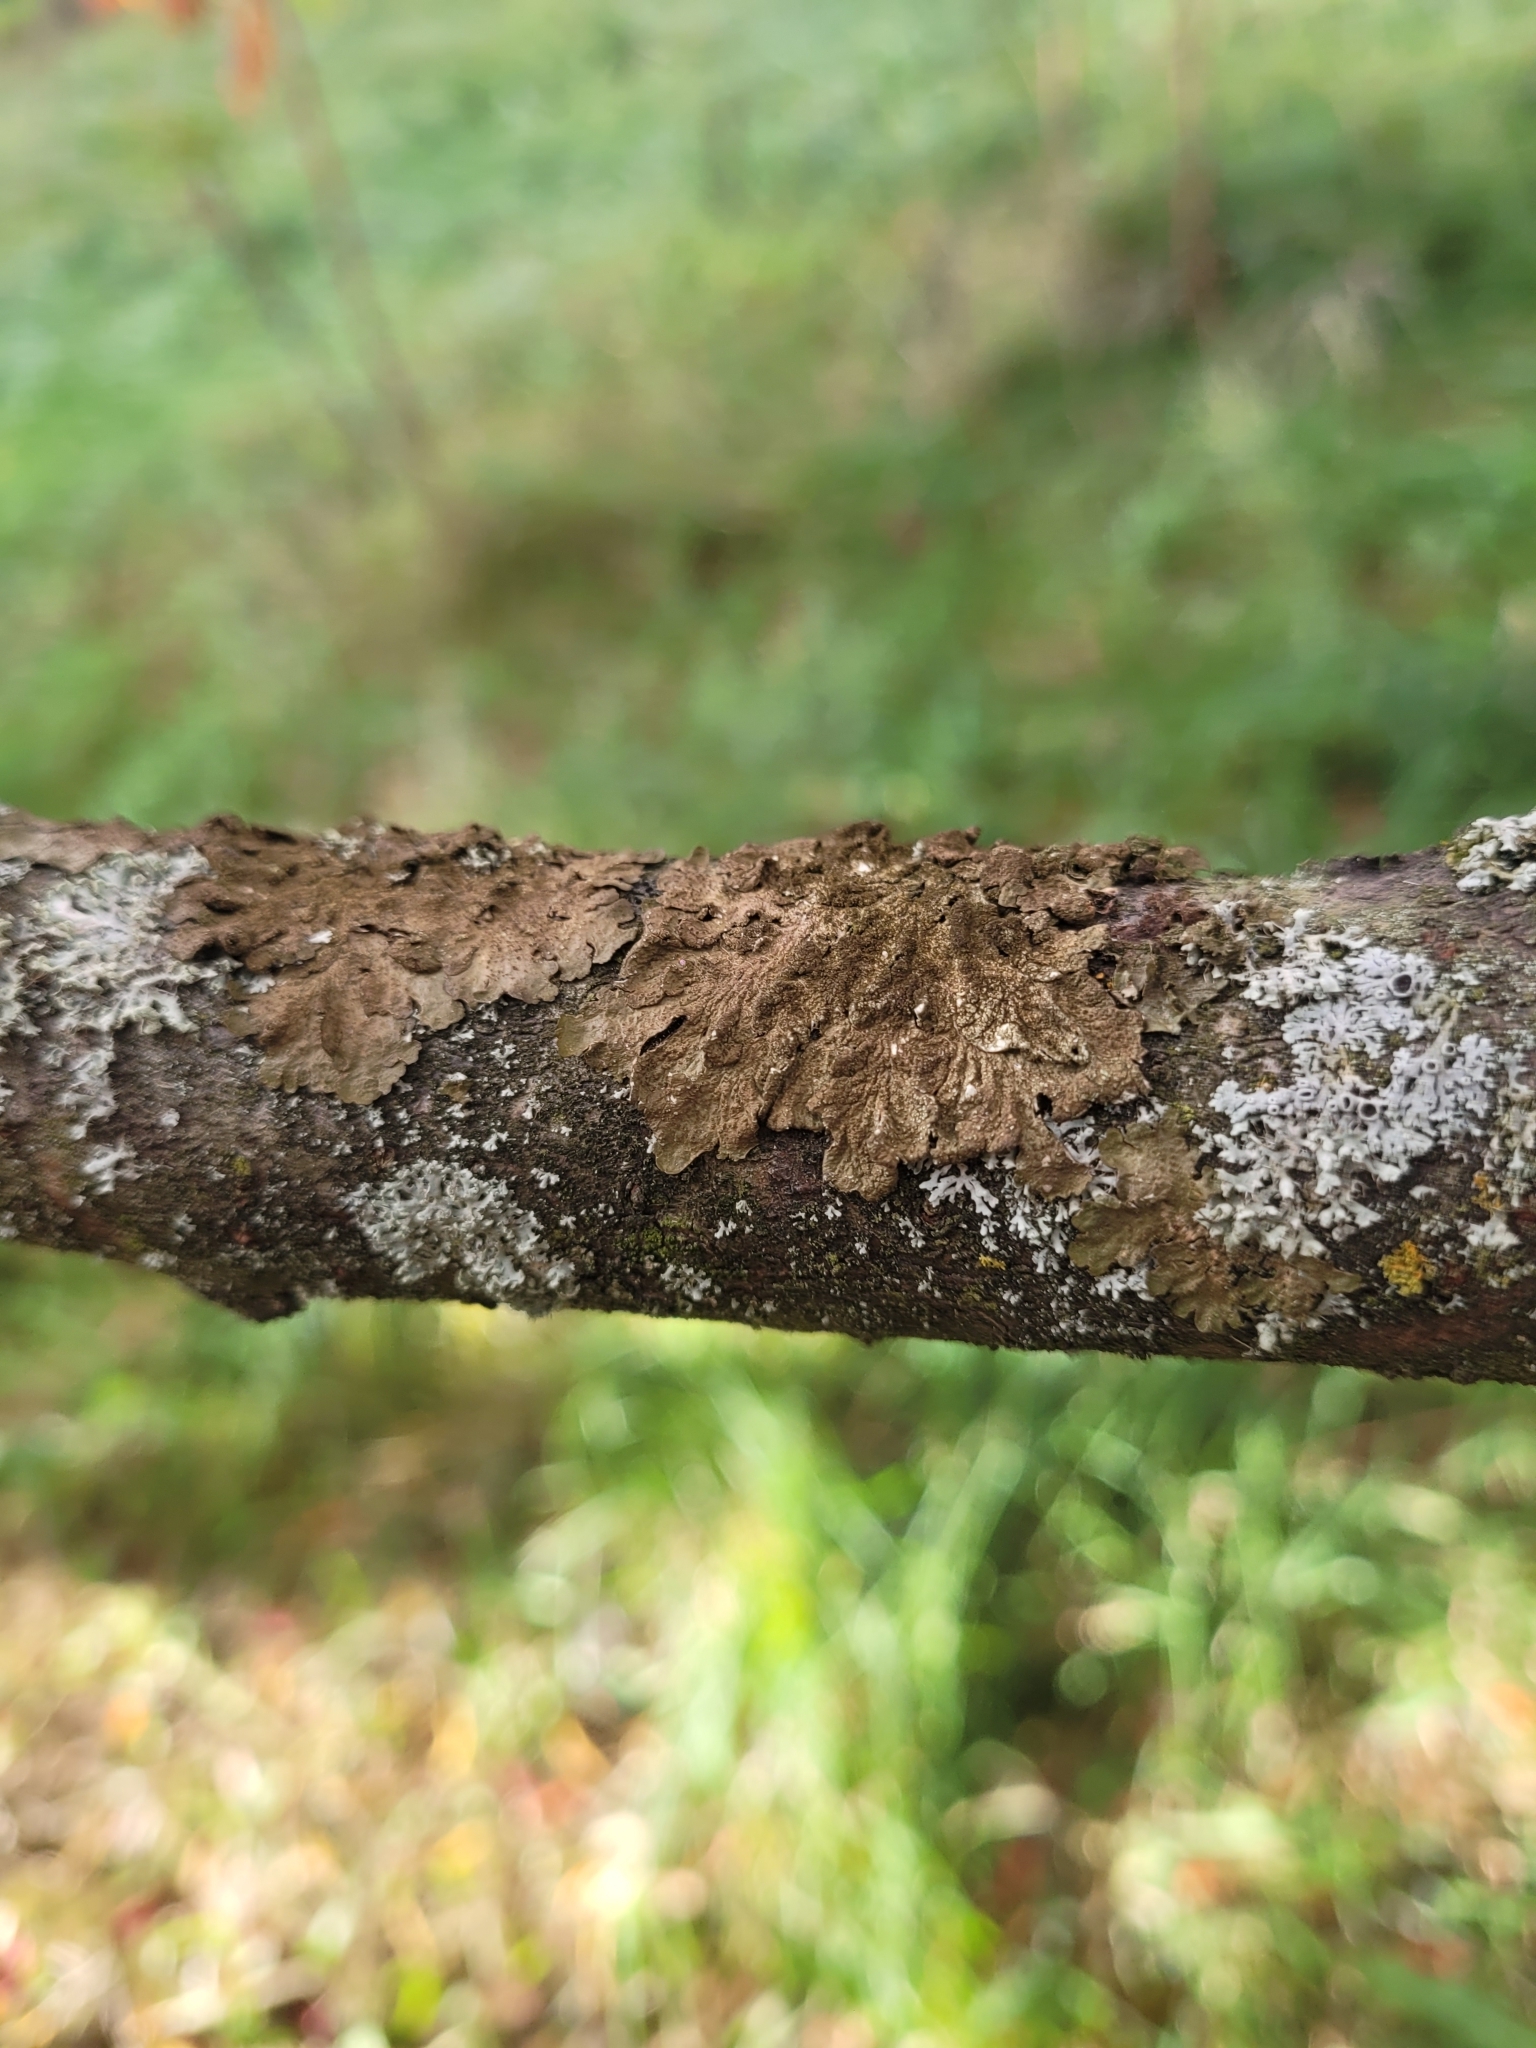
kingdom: Fungi
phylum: Ascomycota
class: Lecanoromycetes
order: Lecanorales
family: Parmeliaceae
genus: Melanelixia
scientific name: Melanelixia subaurifera
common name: Abraded camouflage lichen
